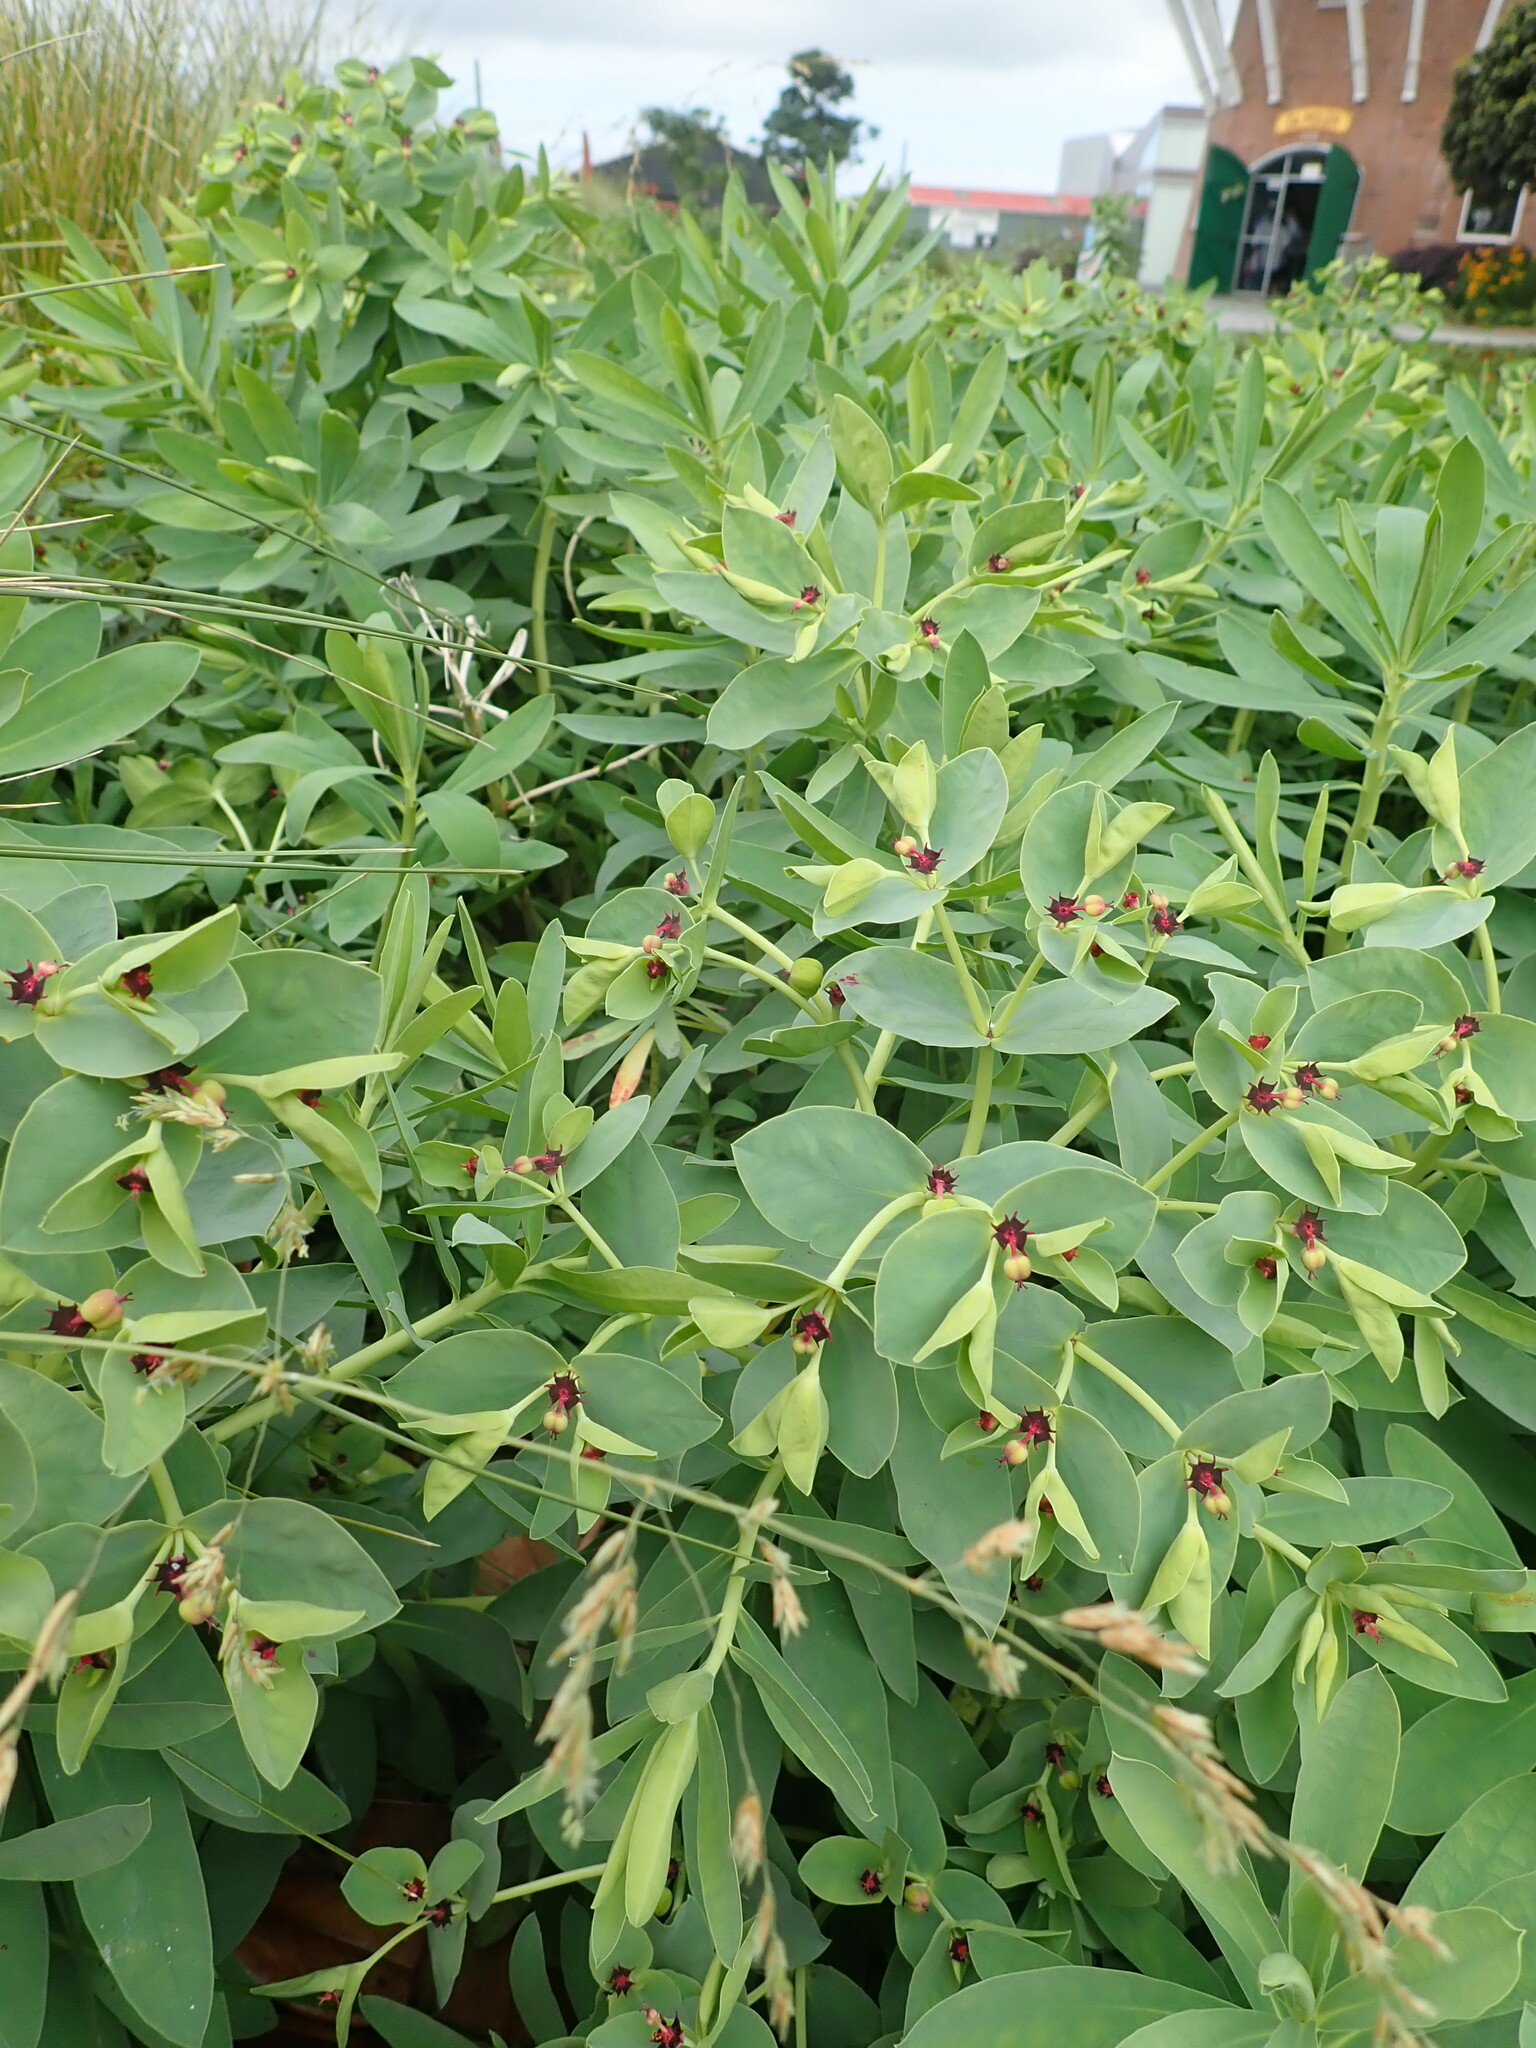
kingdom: Plantae
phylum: Tracheophyta
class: Magnoliopsida
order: Malpighiales
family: Euphorbiaceae
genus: Euphorbia
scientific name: Euphorbia glauca
